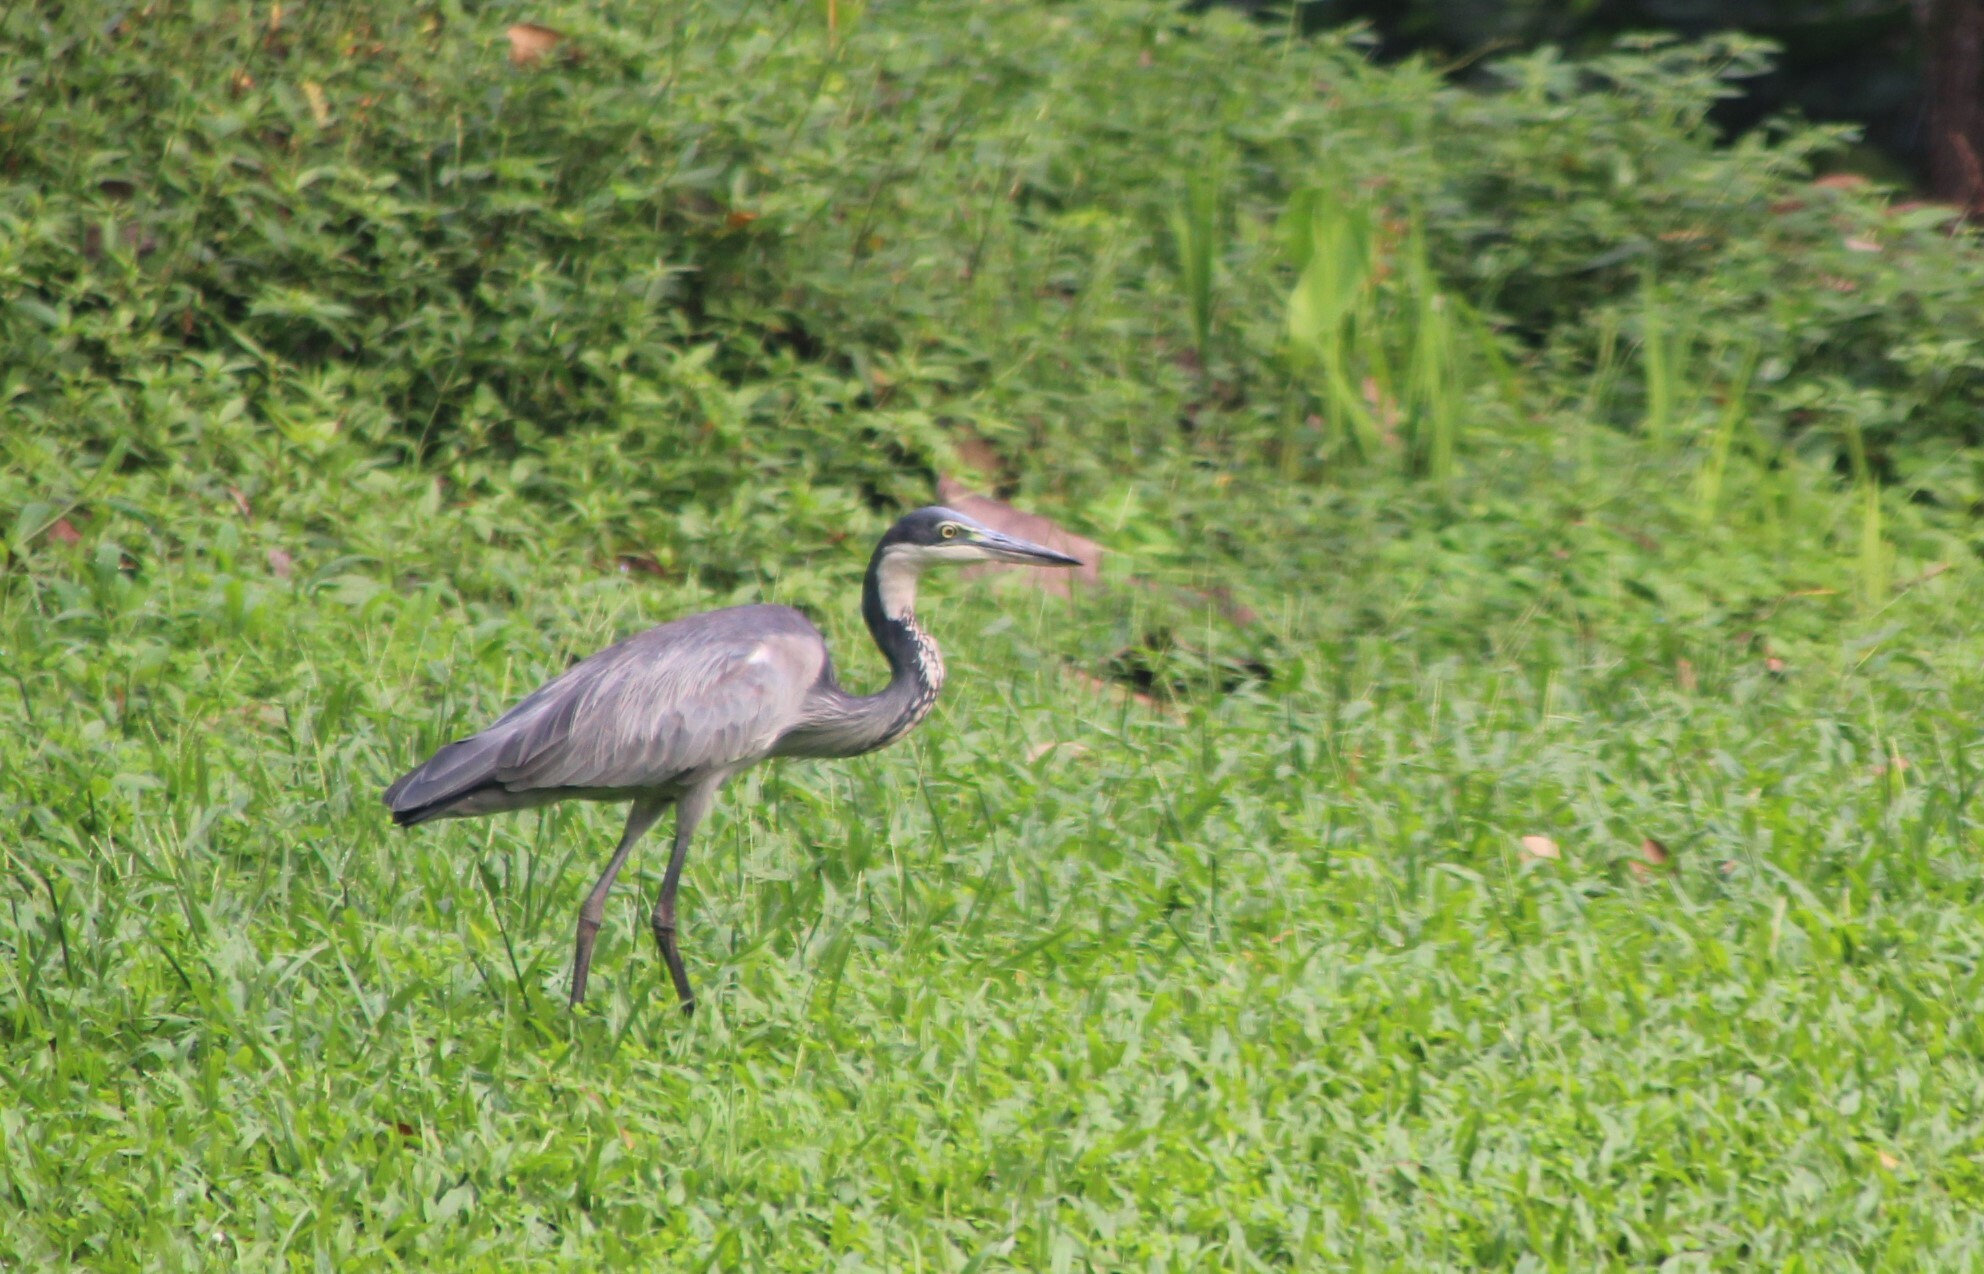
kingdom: Animalia
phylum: Chordata
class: Aves
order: Pelecaniformes
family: Ardeidae
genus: Ardea
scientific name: Ardea melanocephala
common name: Black-headed heron
